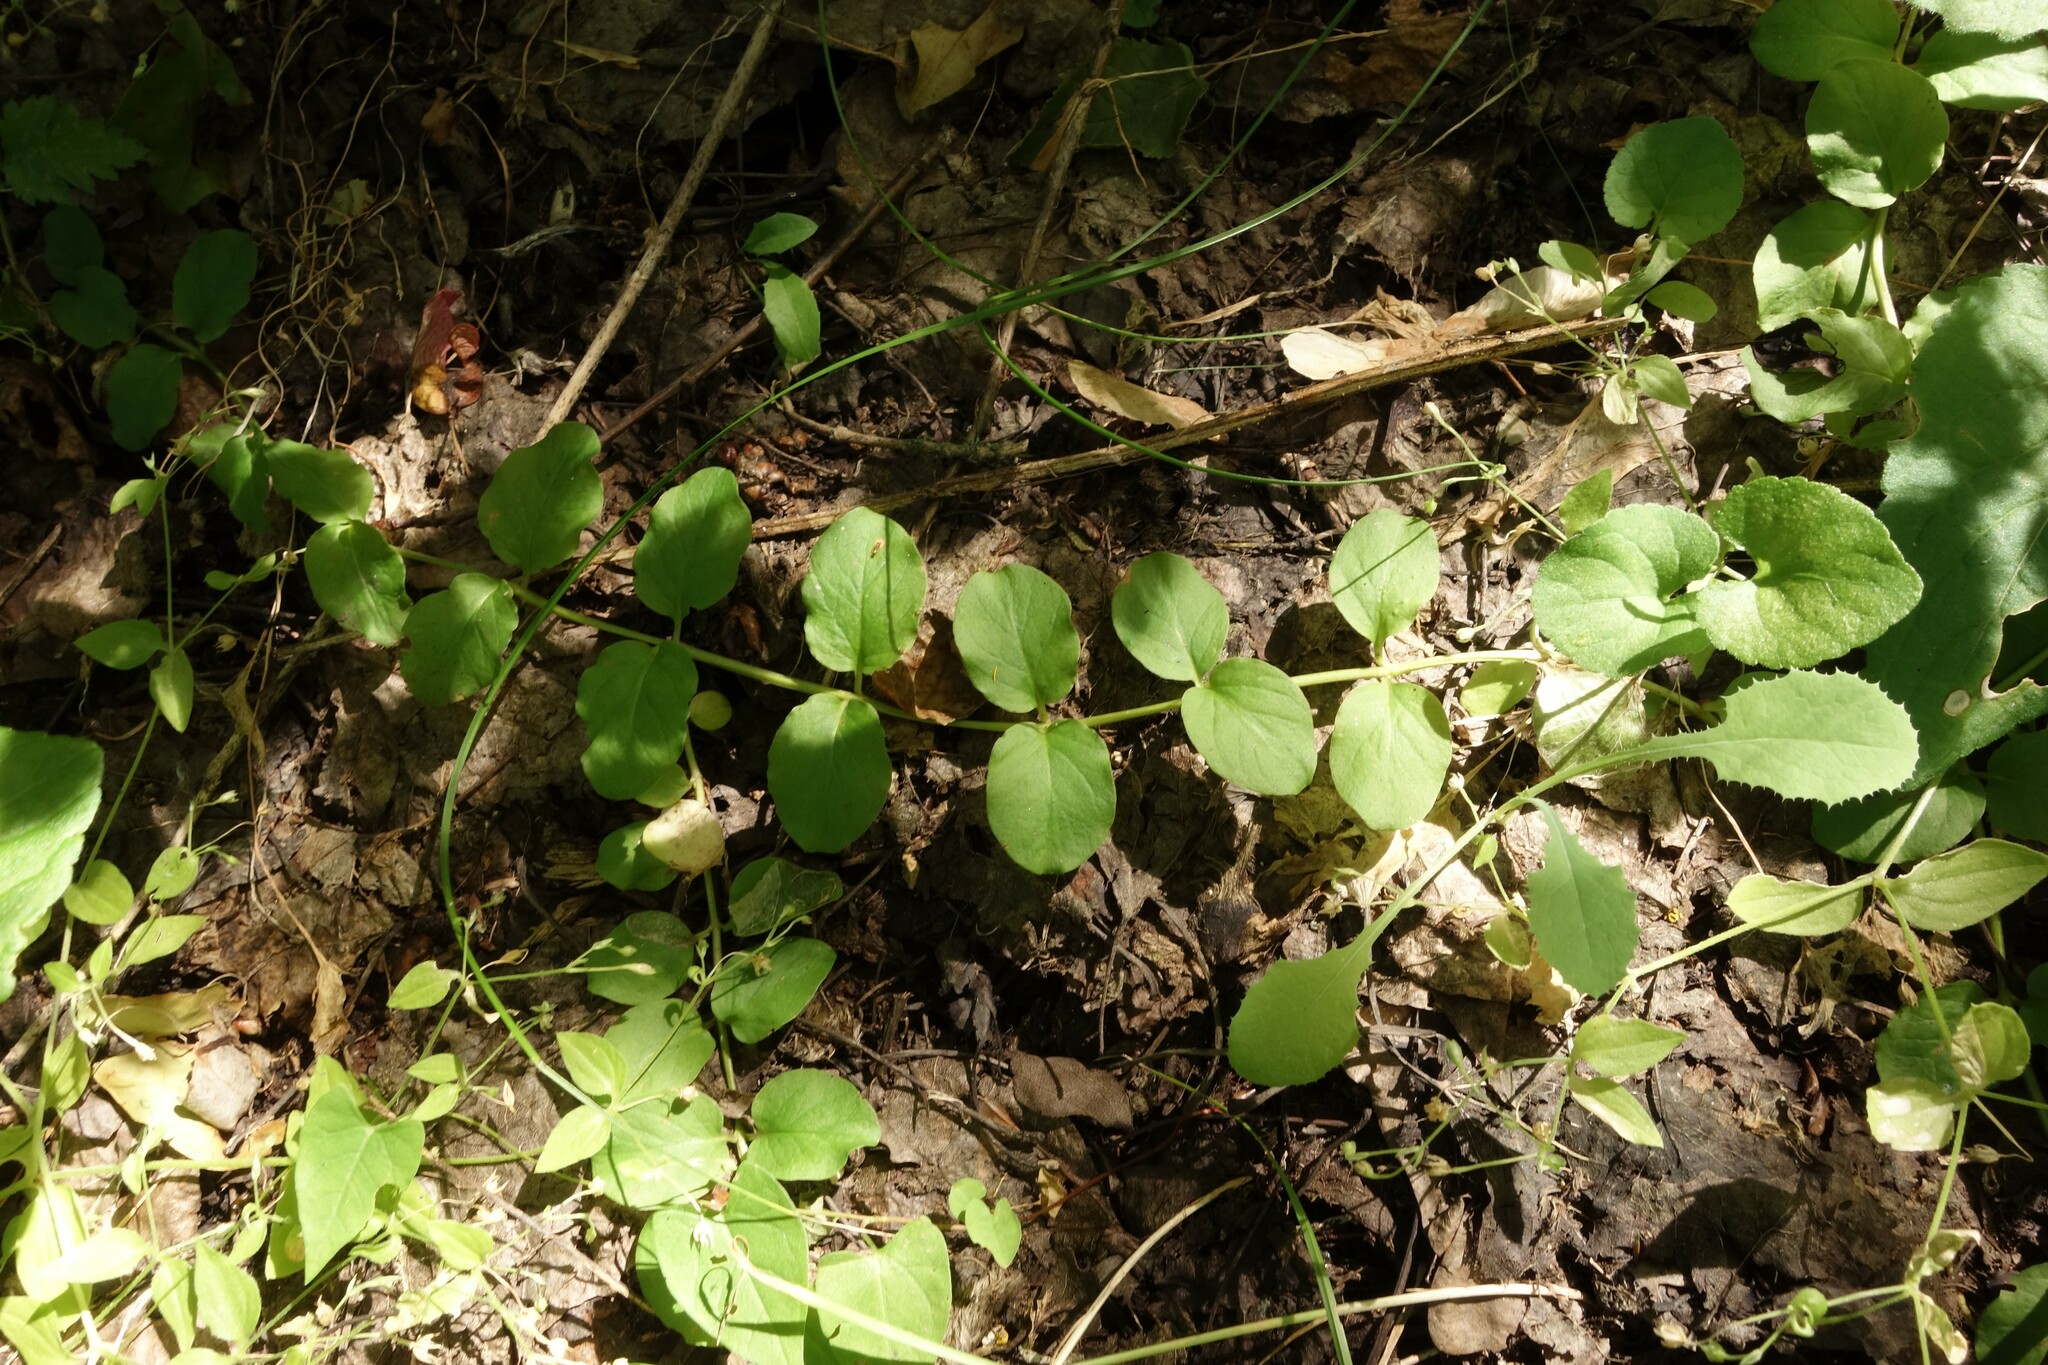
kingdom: Plantae
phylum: Tracheophyta
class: Magnoliopsida
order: Ericales
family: Primulaceae
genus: Lysimachia
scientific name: Lysimachia nummularia
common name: Moneywort
